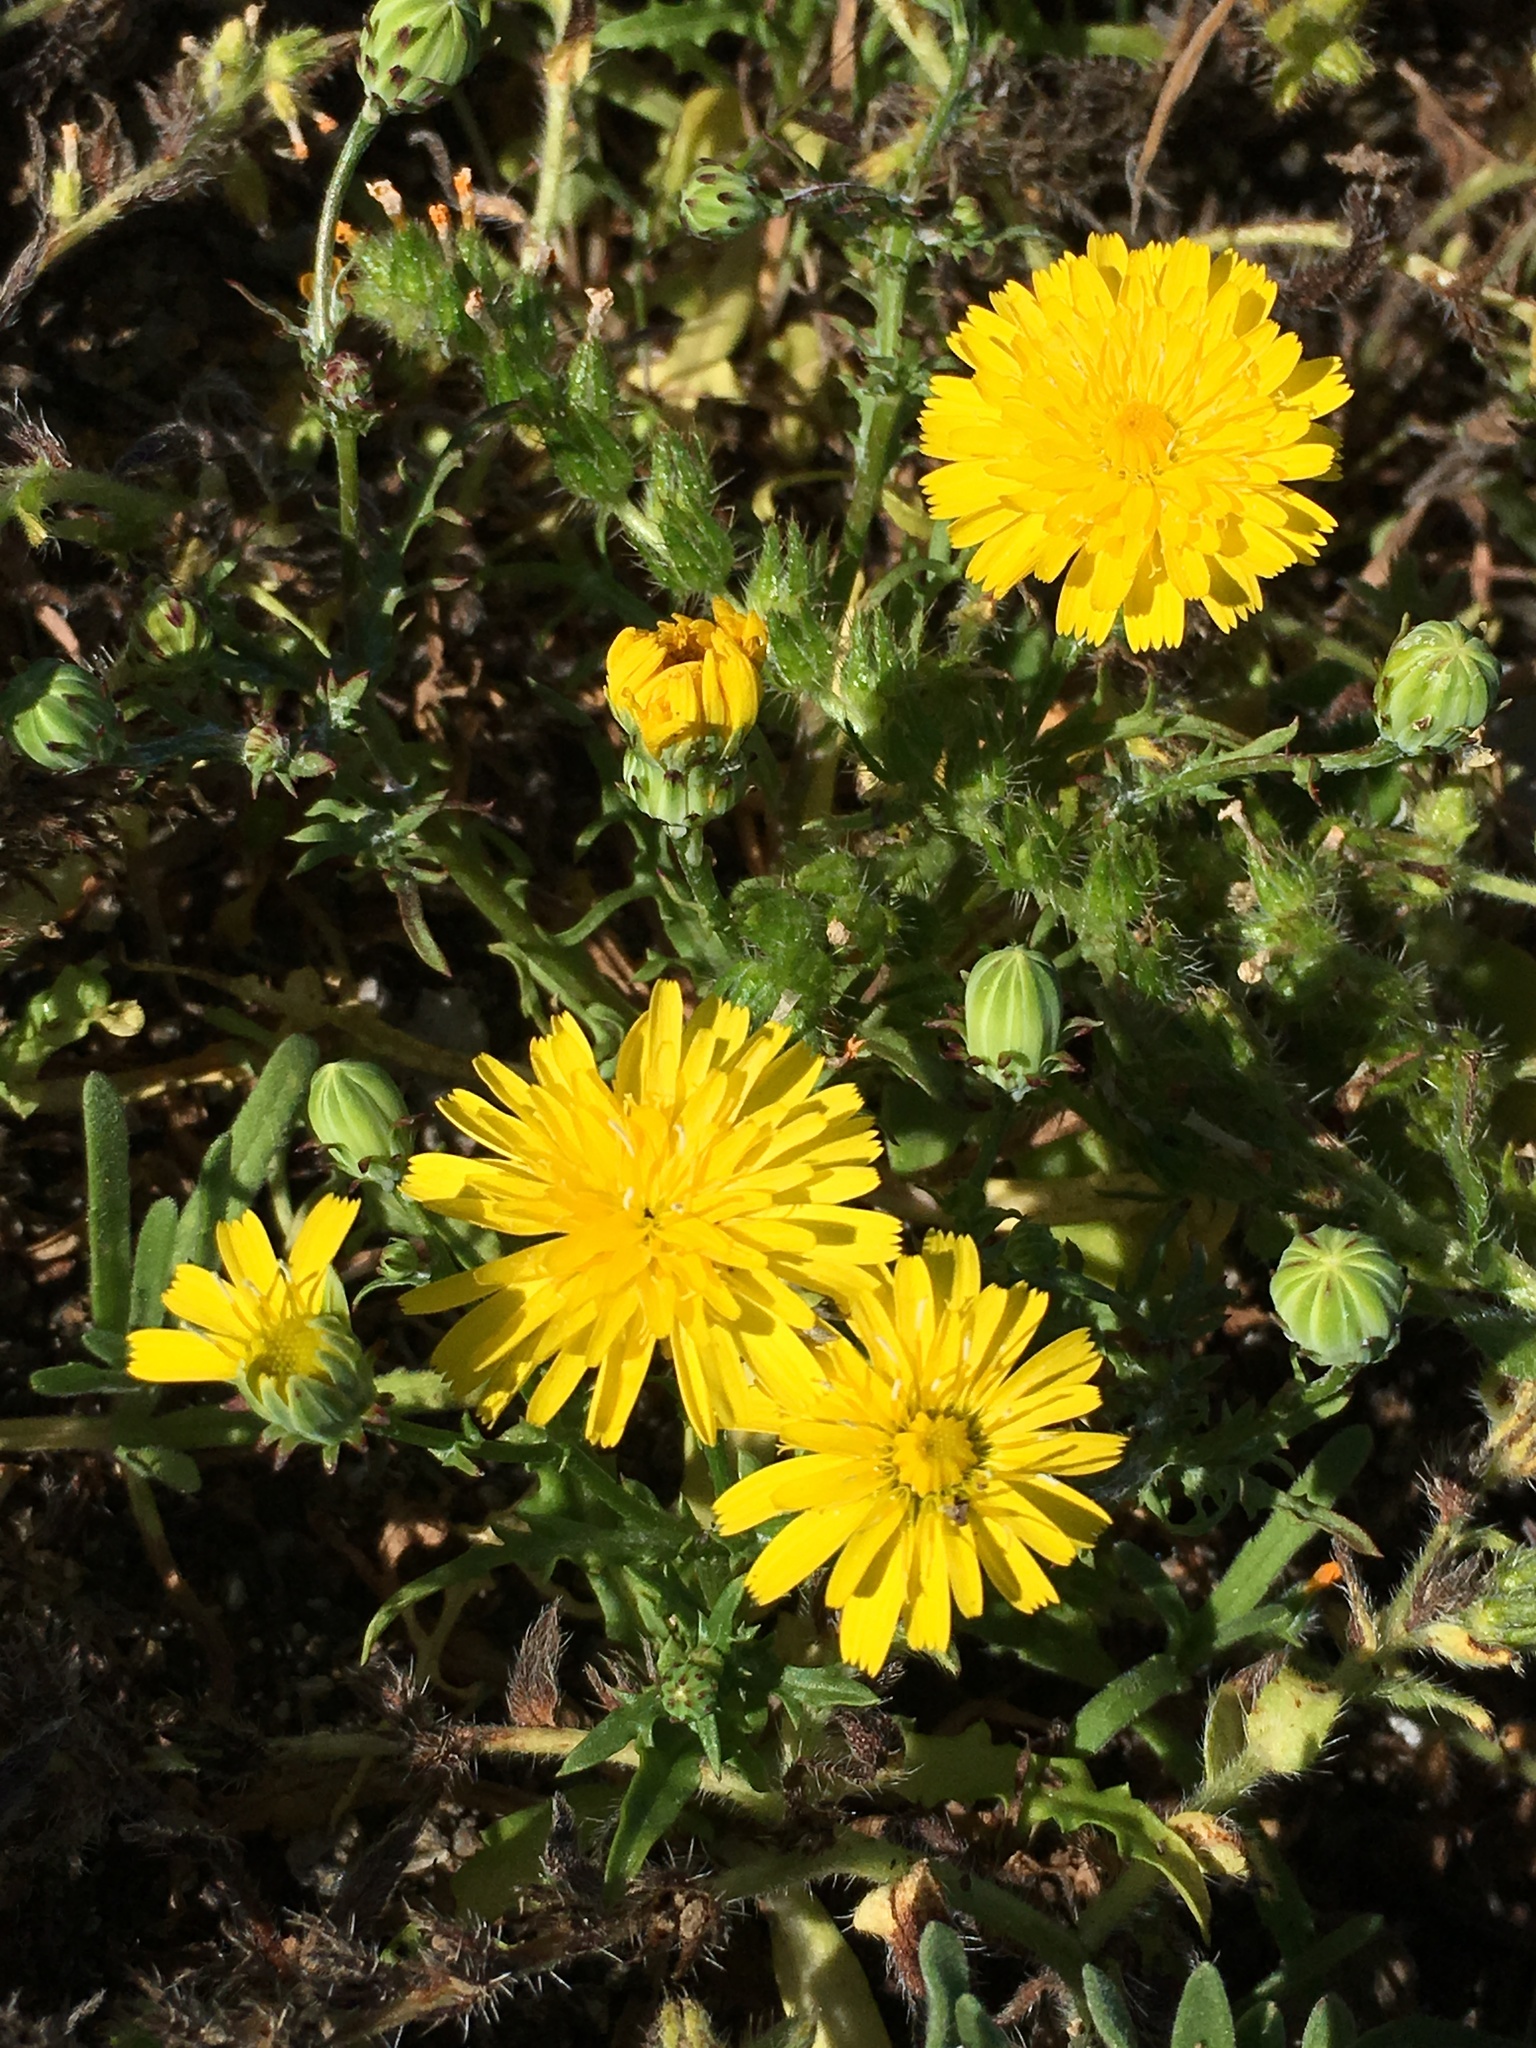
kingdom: Plantae
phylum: Tracheophyta
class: Magnoliopsida
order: Asterales
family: Asteraceae
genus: Malacothrix
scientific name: Malacothrix foliosa
